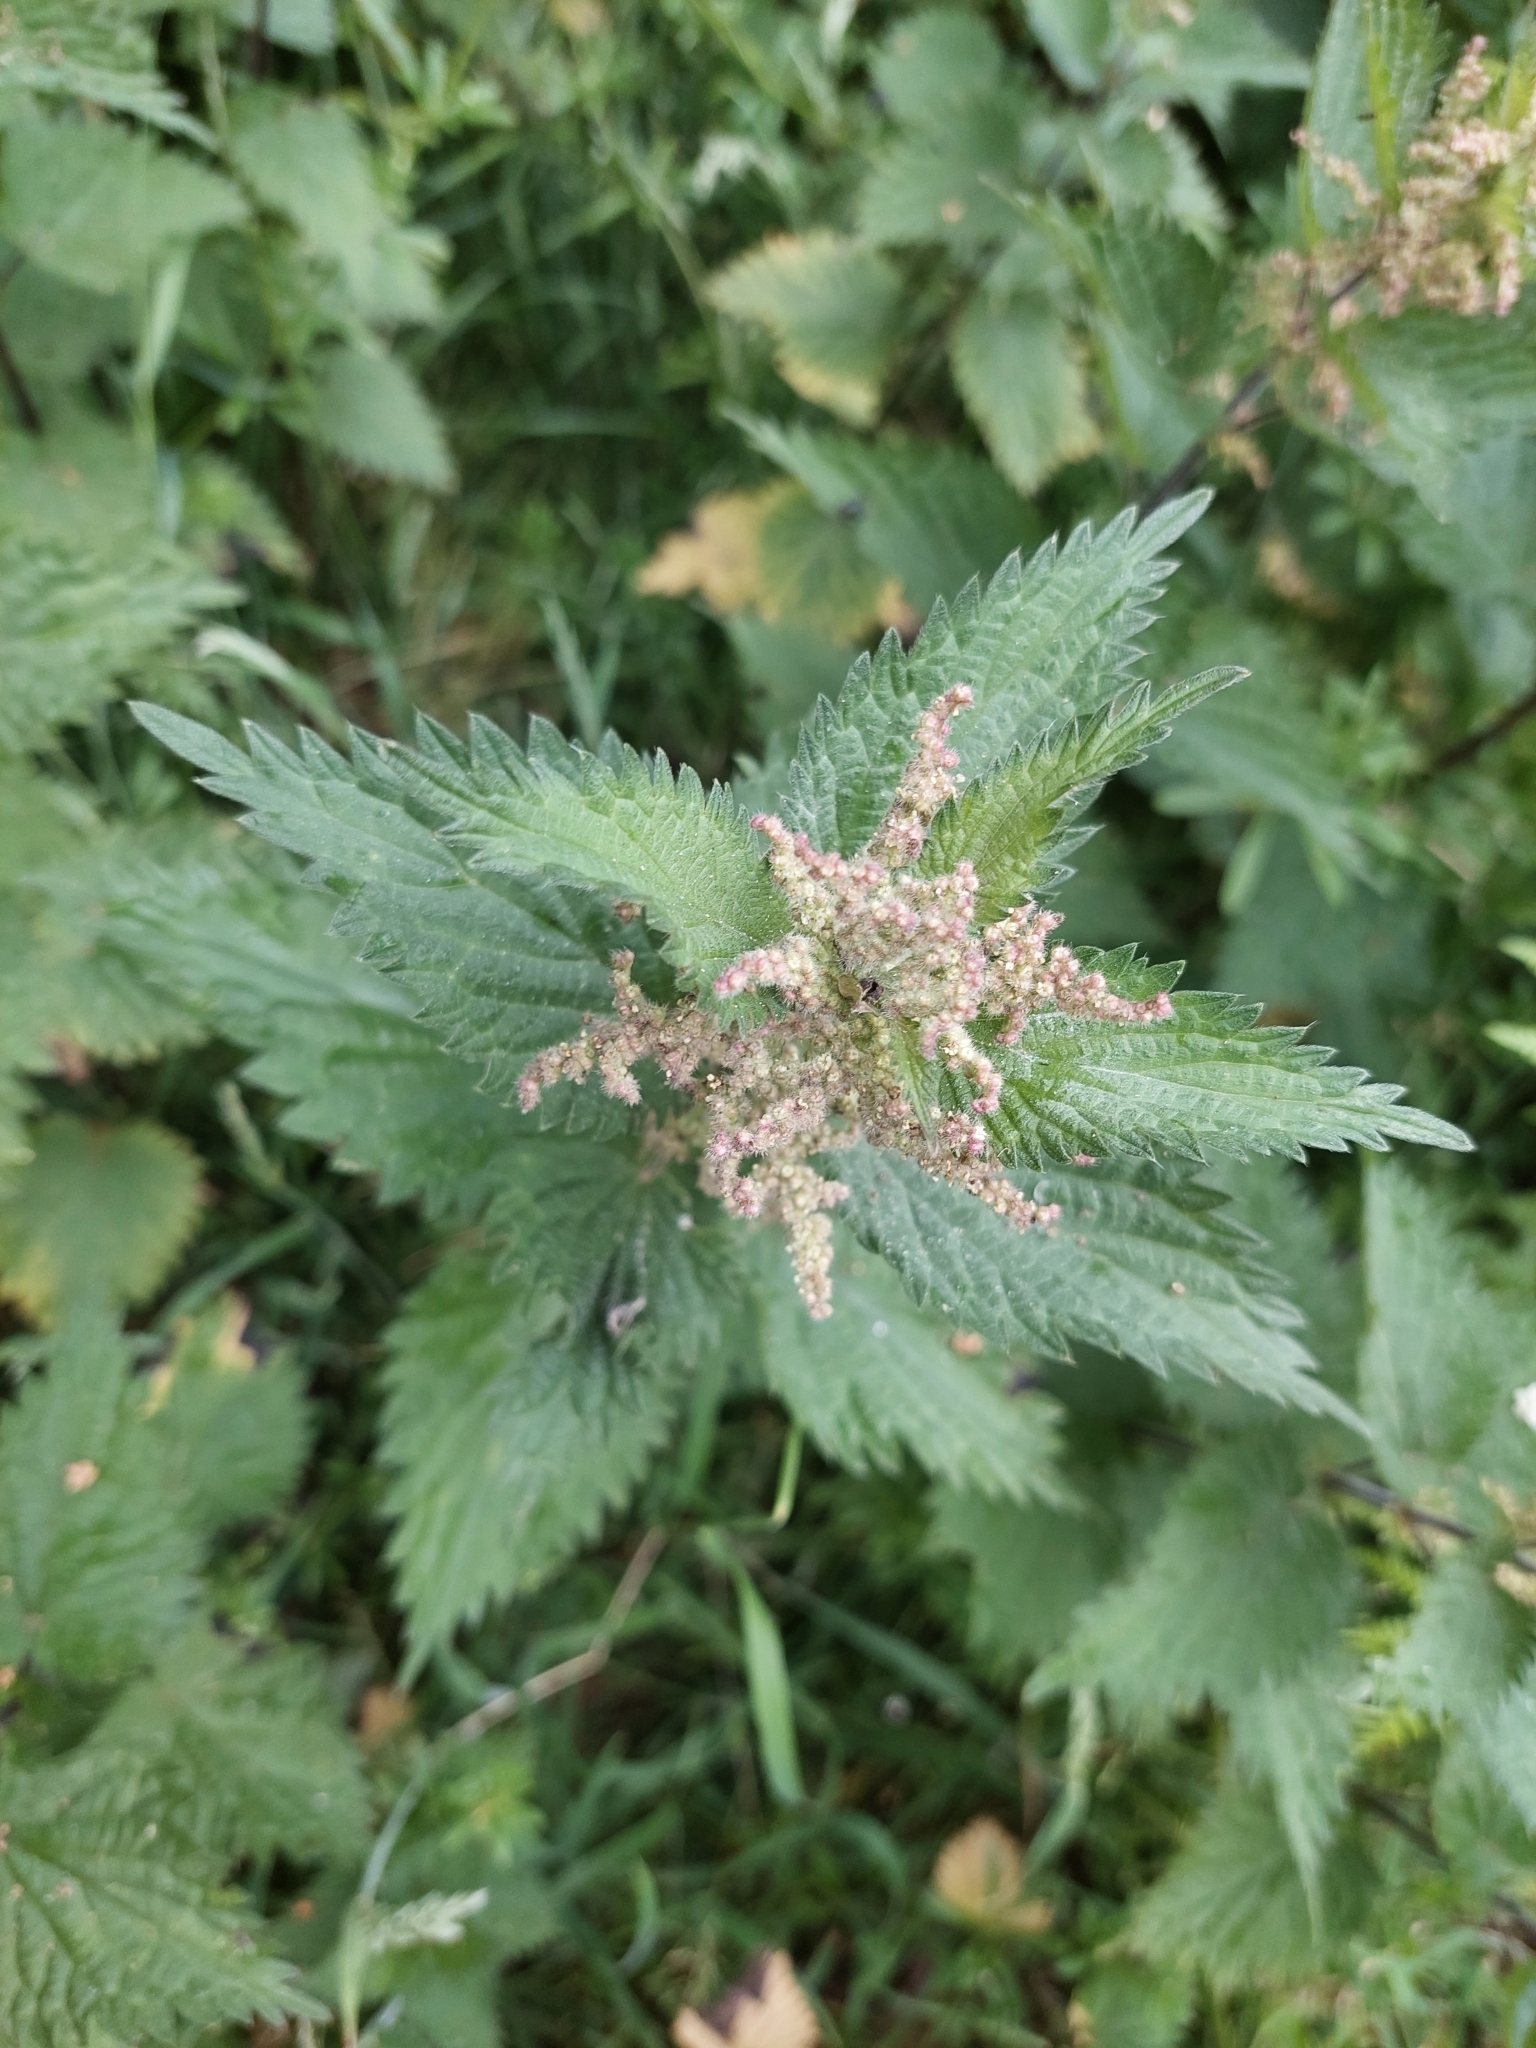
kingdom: Plantae
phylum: Tracheophyta
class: Magnoliopsida
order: Rosales
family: Urticaceae
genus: Urtica
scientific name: Urtica dioica
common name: Common nettle
